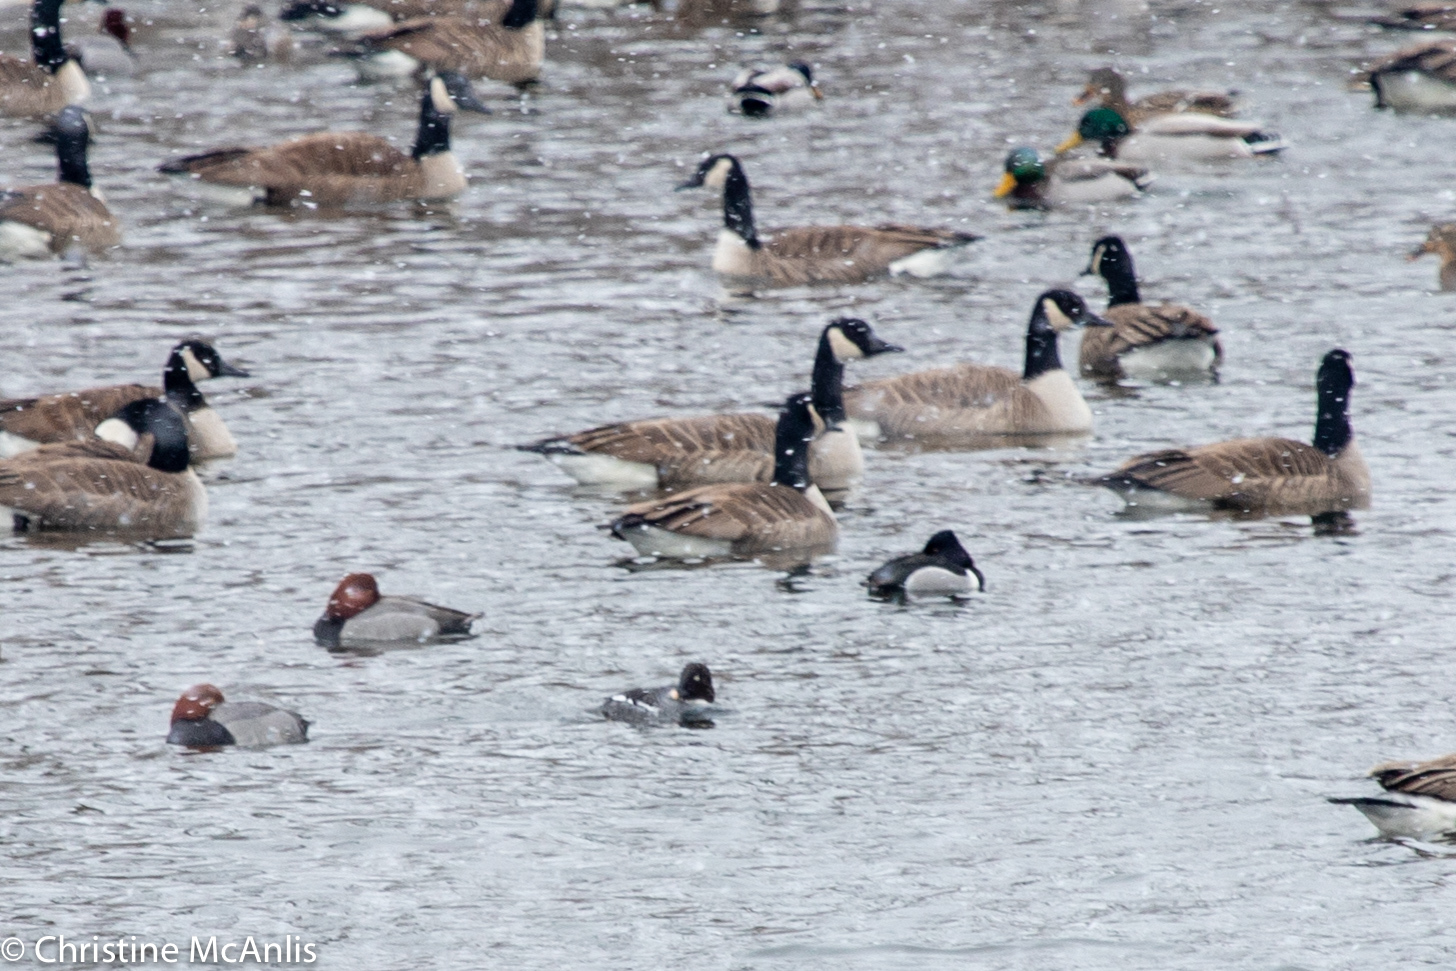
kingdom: Animalia
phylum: Chordata
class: Aves
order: Anseriformes
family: Anatidae
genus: Bucephala
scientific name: Bucephala clangula
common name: Common goldeneye
